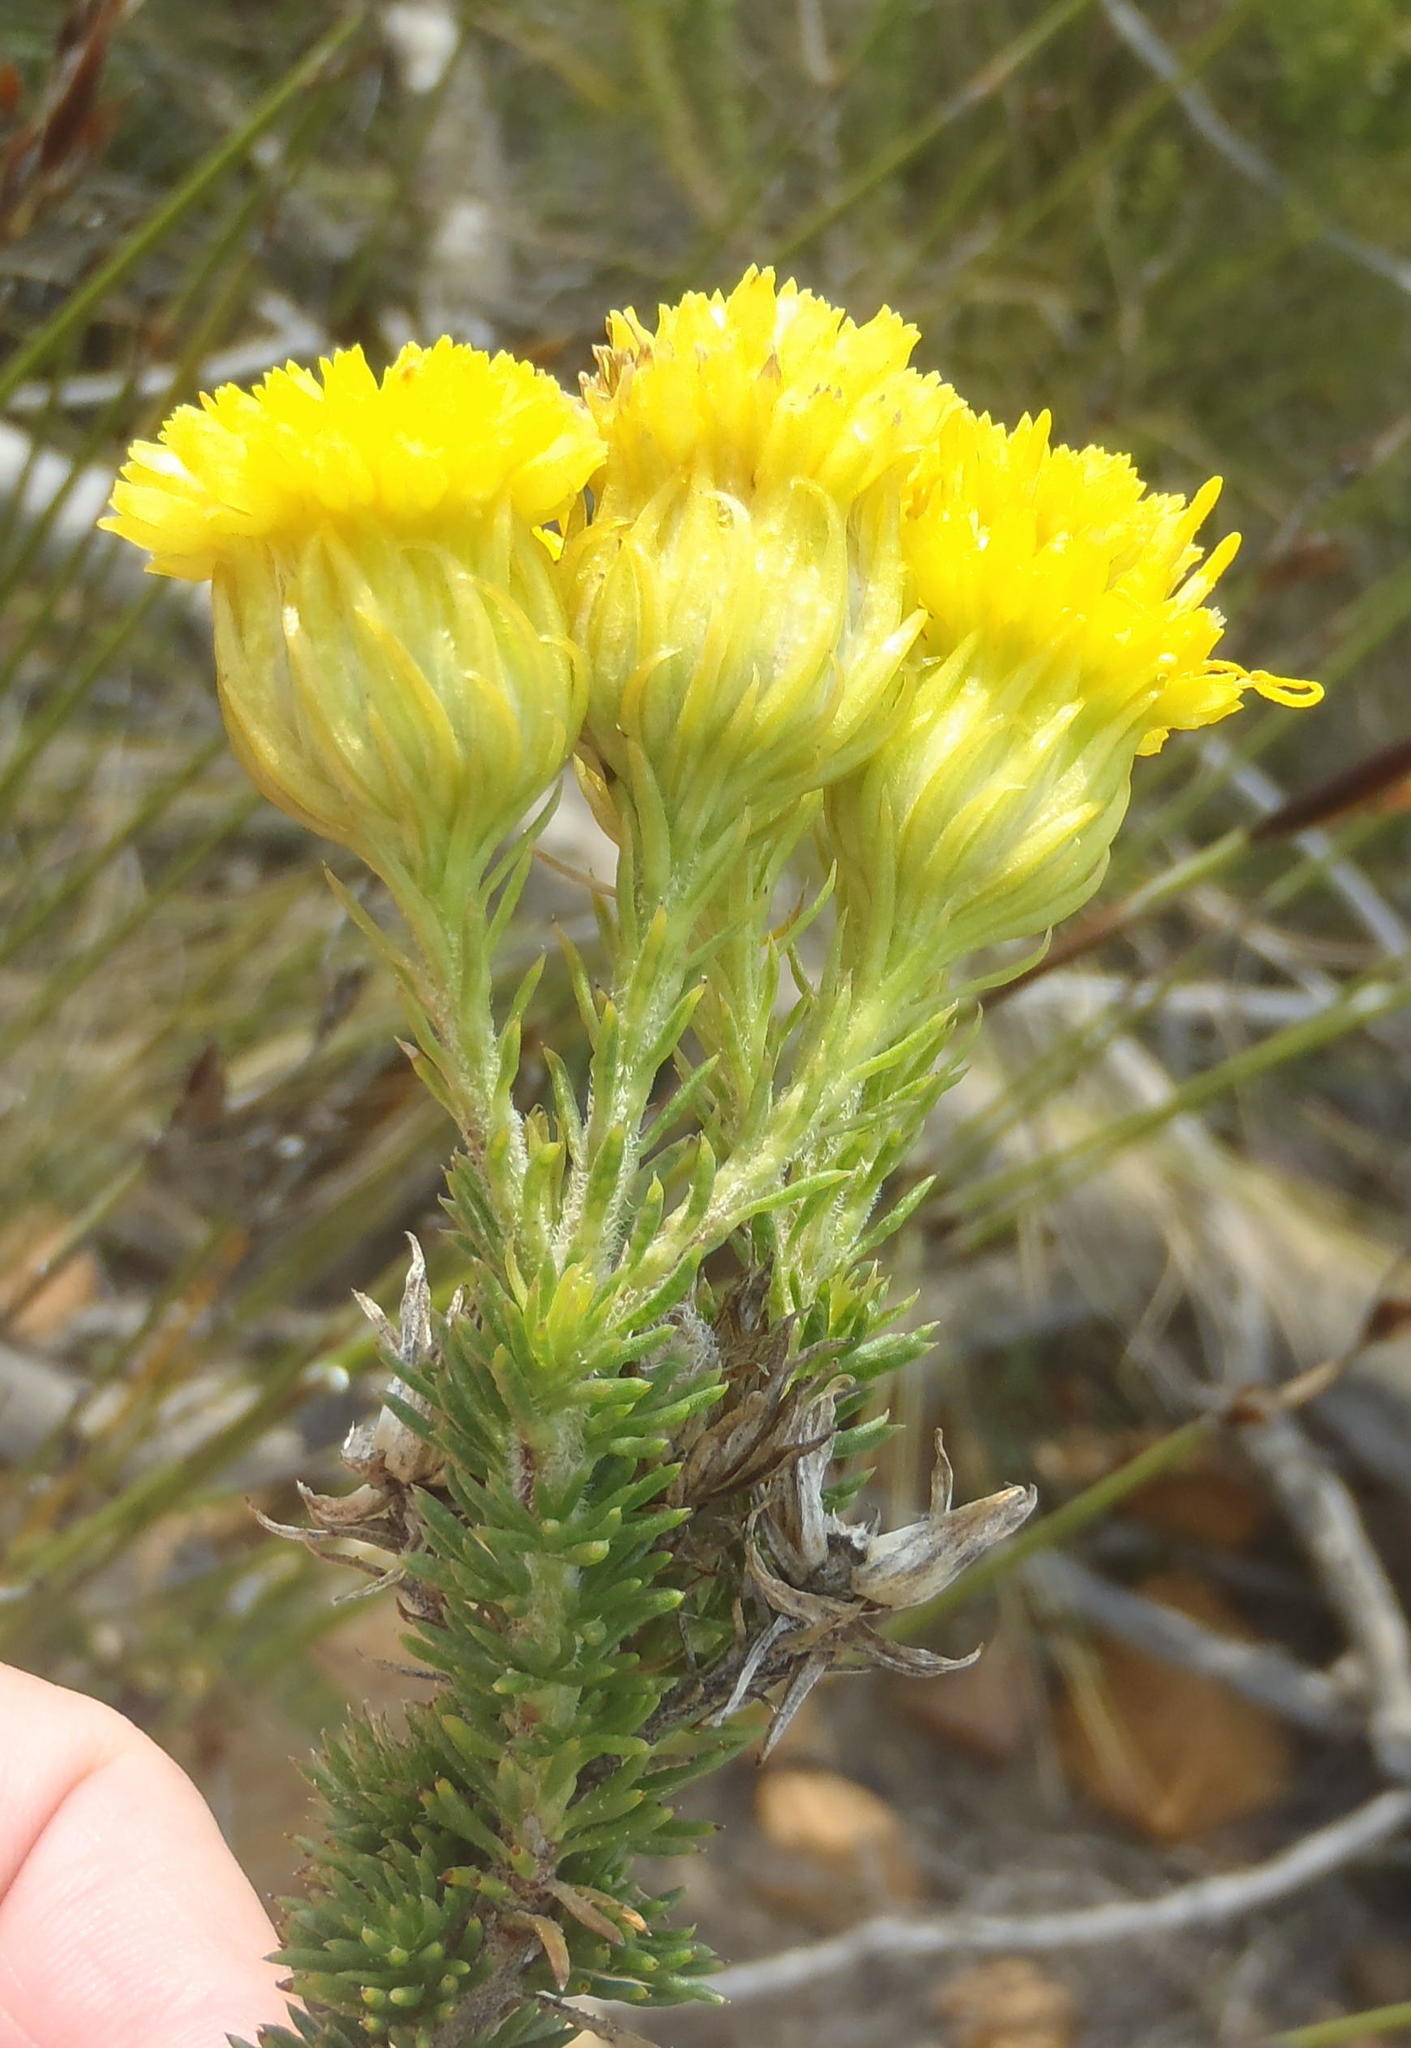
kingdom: Plantae
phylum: Tracheophyta
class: Magnoliopsida
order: Asterales
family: Asteraceae
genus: Pteronia
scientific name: Pteronia camphorata
